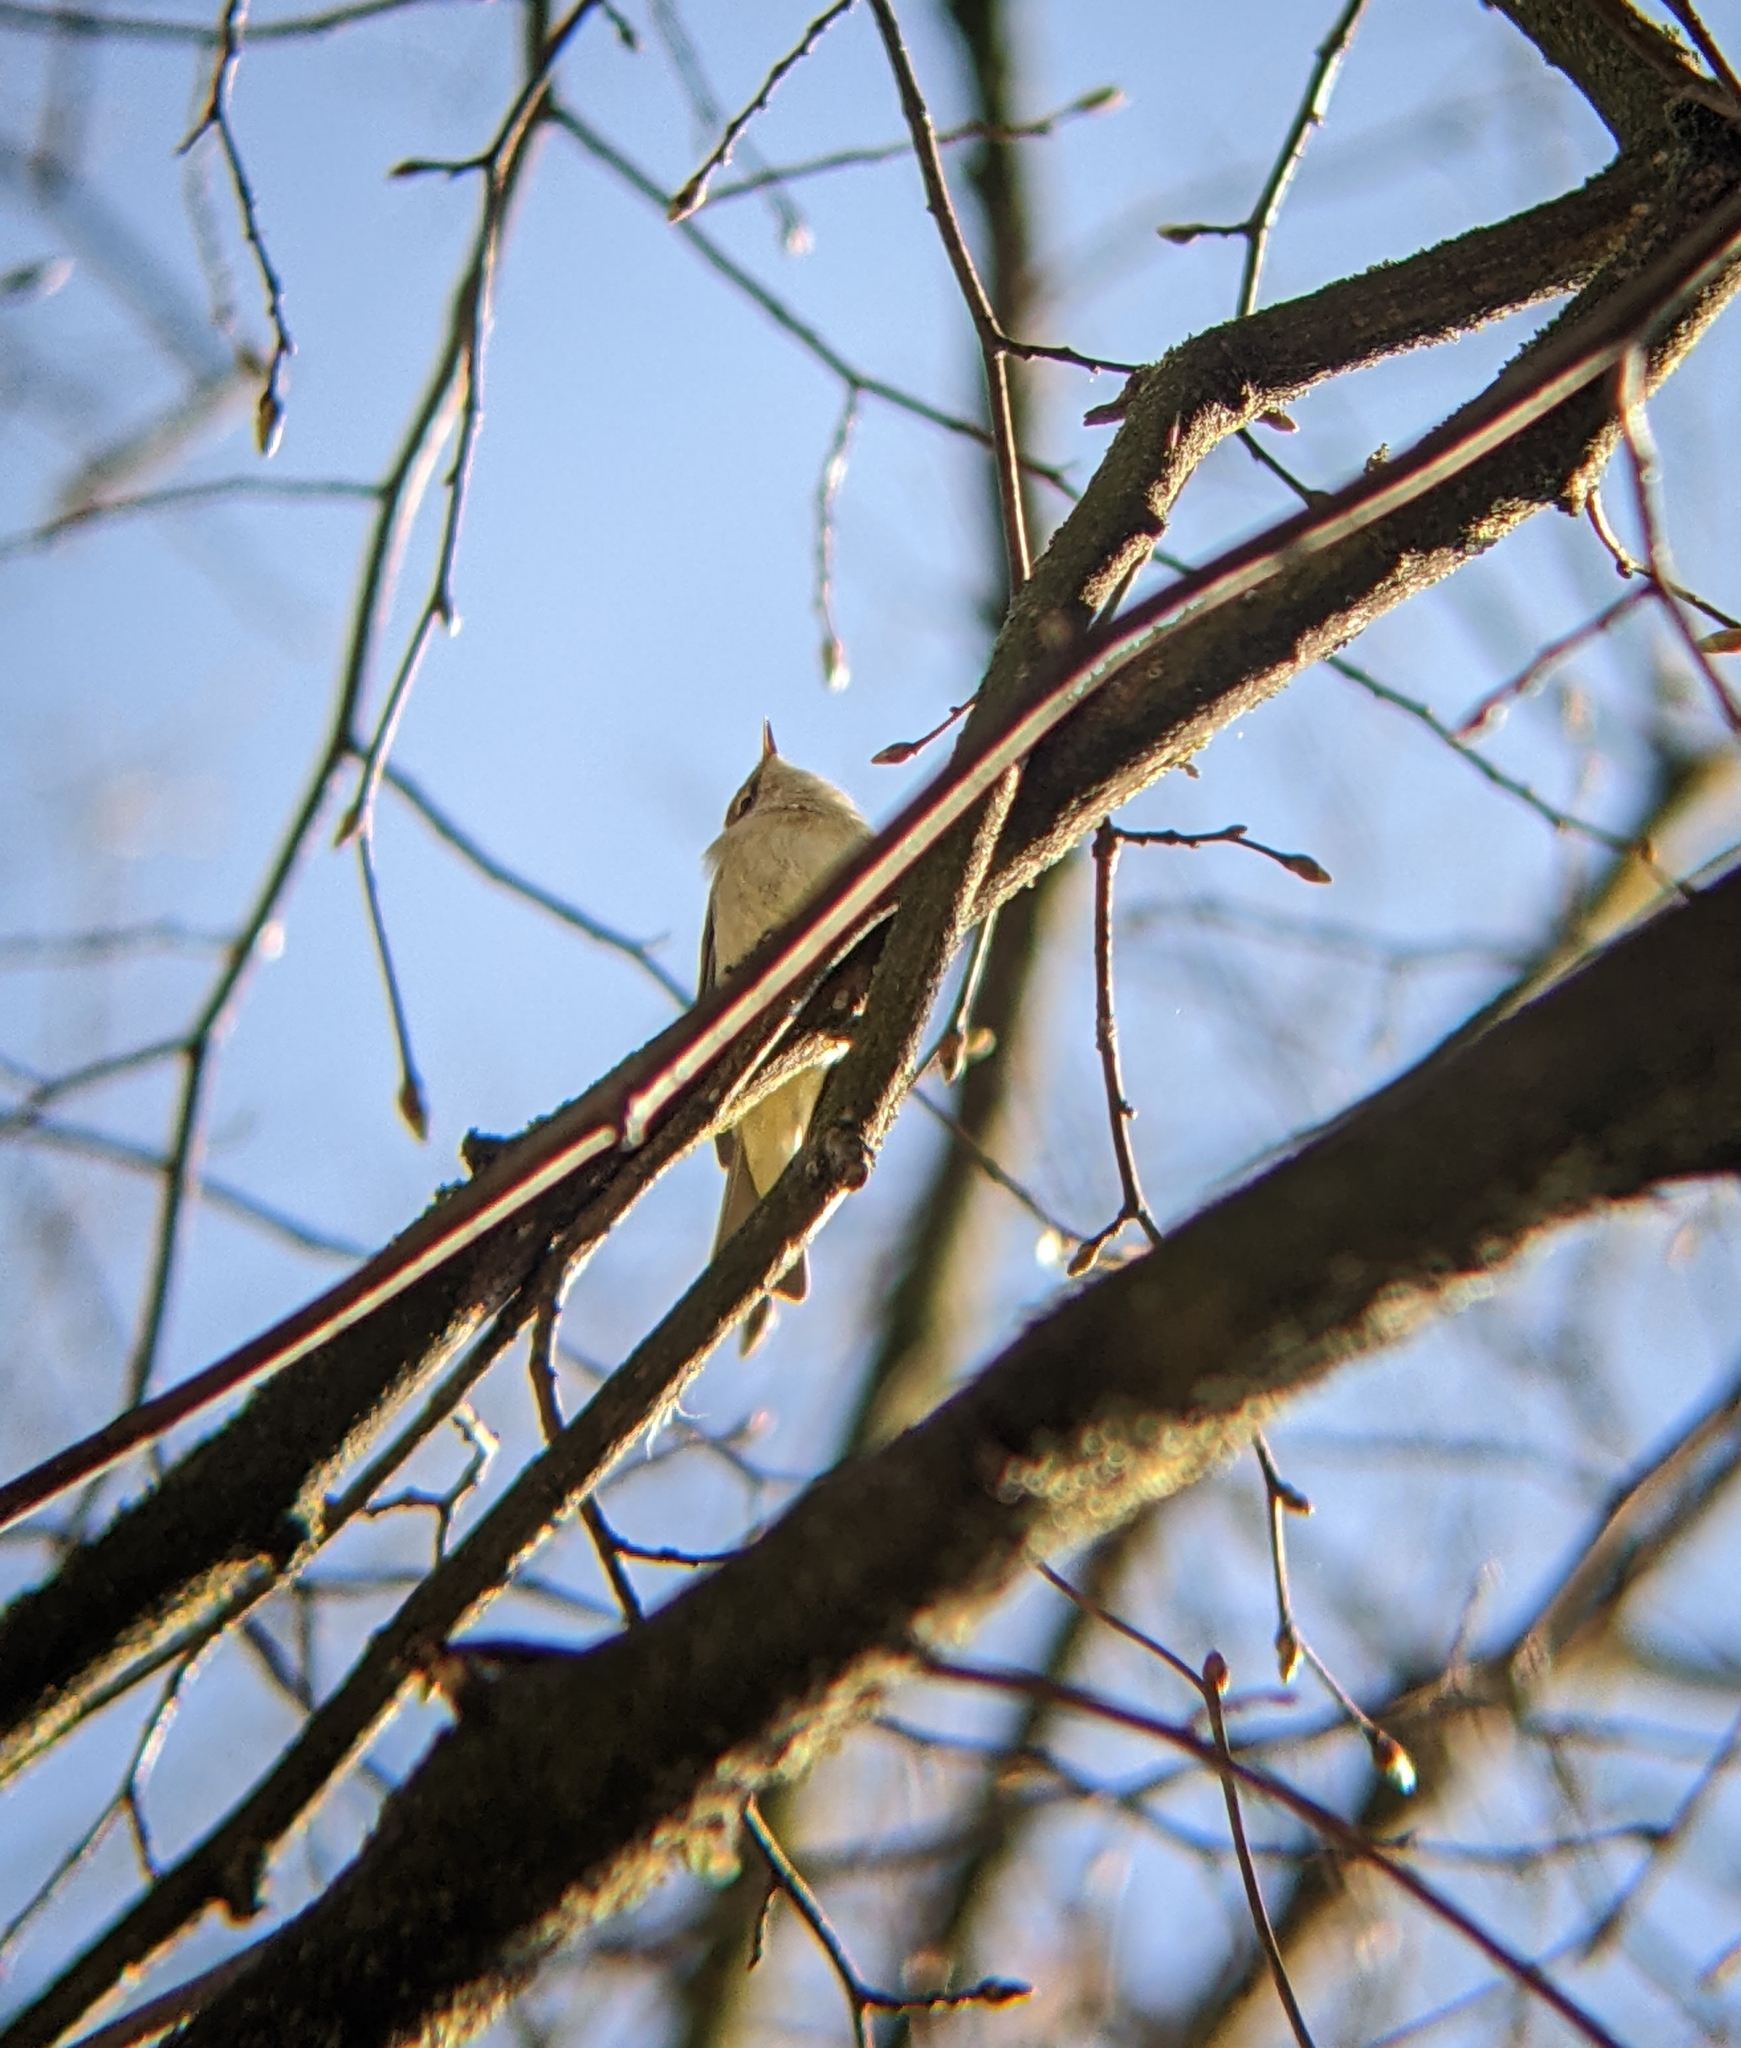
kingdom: Animalia
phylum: Chordata
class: Aves
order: Passeriformes
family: Phylloscopidae
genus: Phylloscopus
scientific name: Phylloscopus collybita
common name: Common chiffchaff
